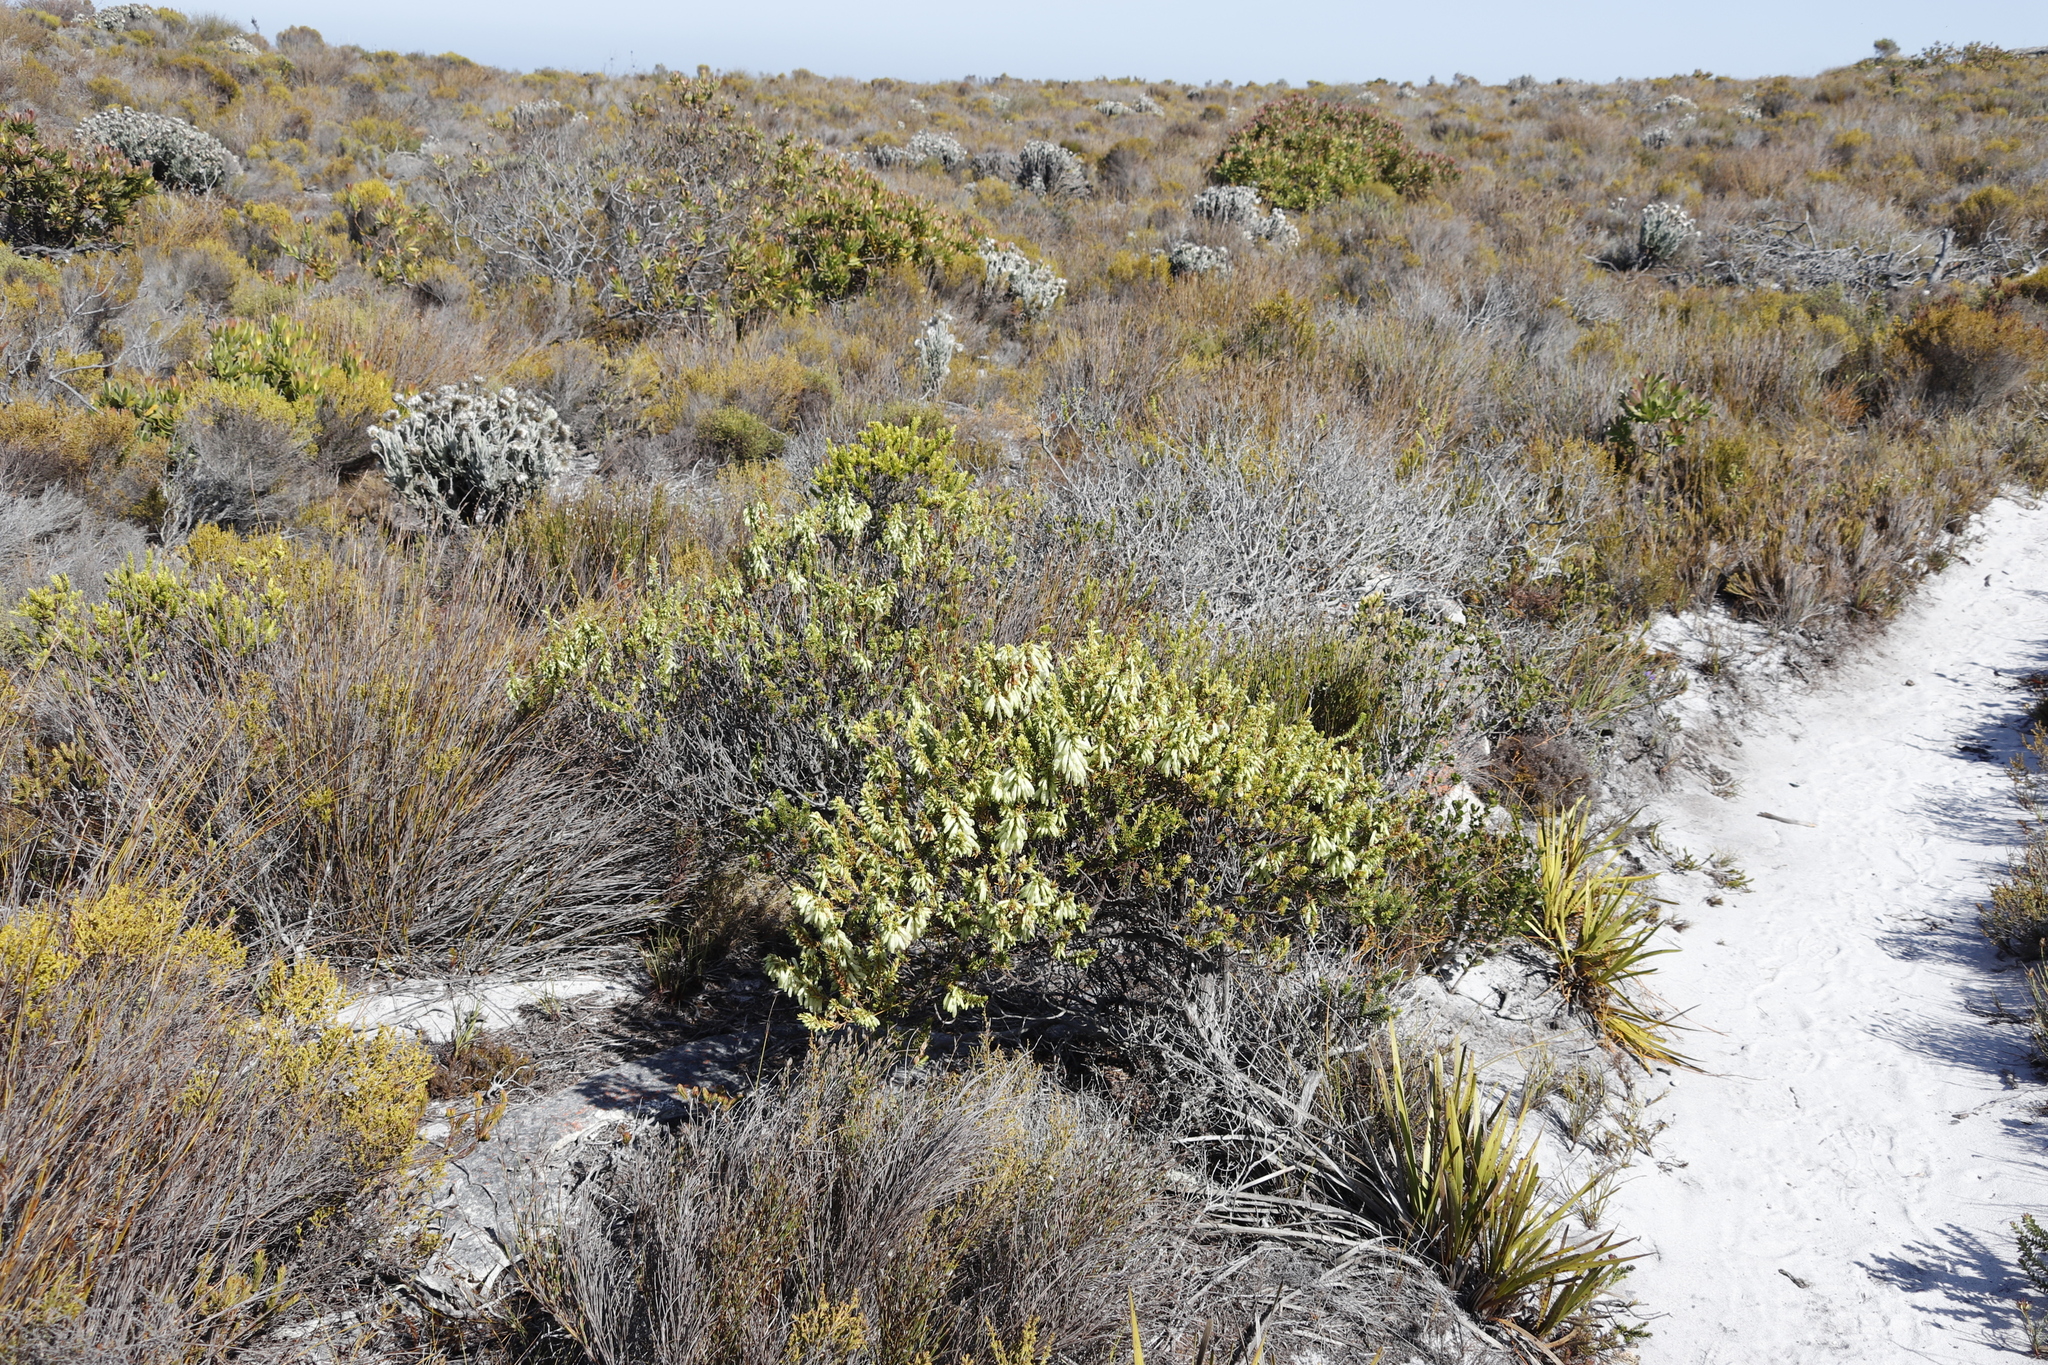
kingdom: Plantae
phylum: Tracheophyta
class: Magnoliopsida
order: Ericales
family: Ericaceae
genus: Erica
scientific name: Erica mammosa
